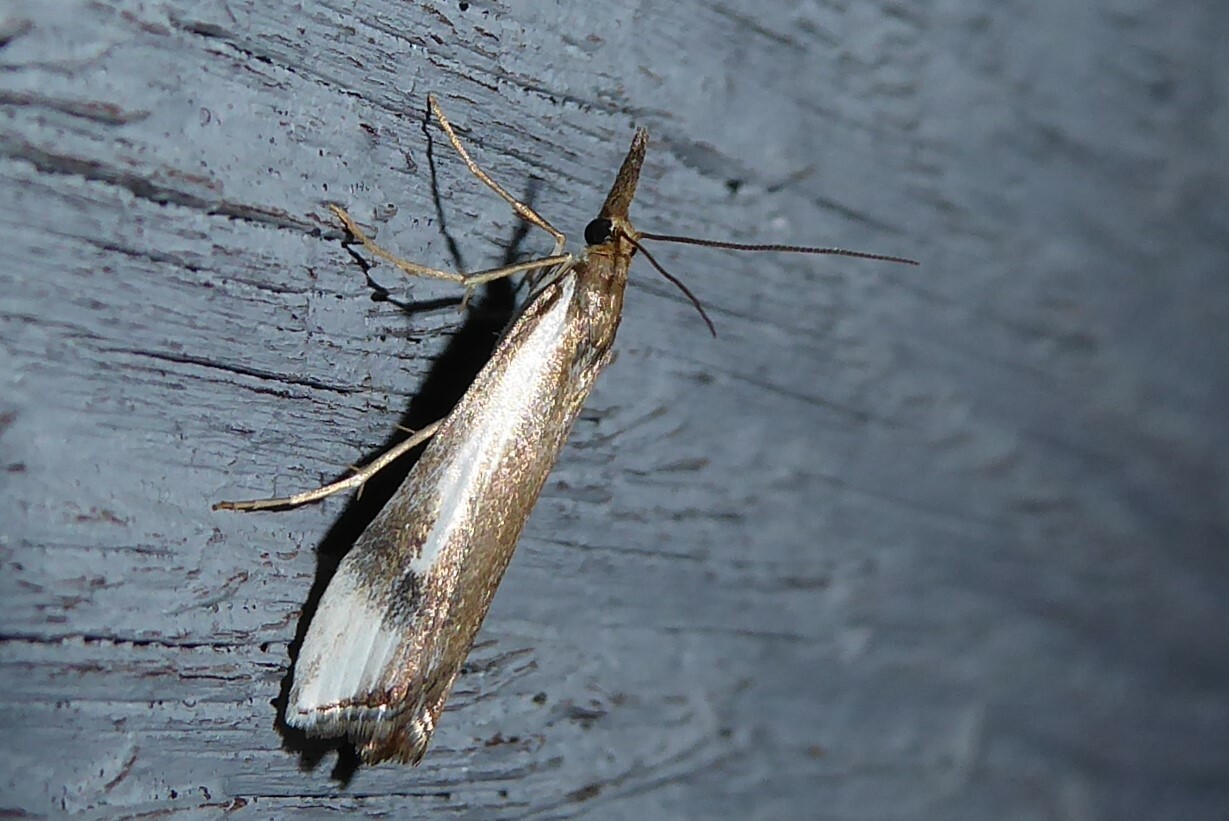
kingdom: Animalia
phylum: Arthropoda
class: Insecta
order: Lepidoptera
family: Crambidae
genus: Orocrambus
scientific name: Orocrambus vulgaris
